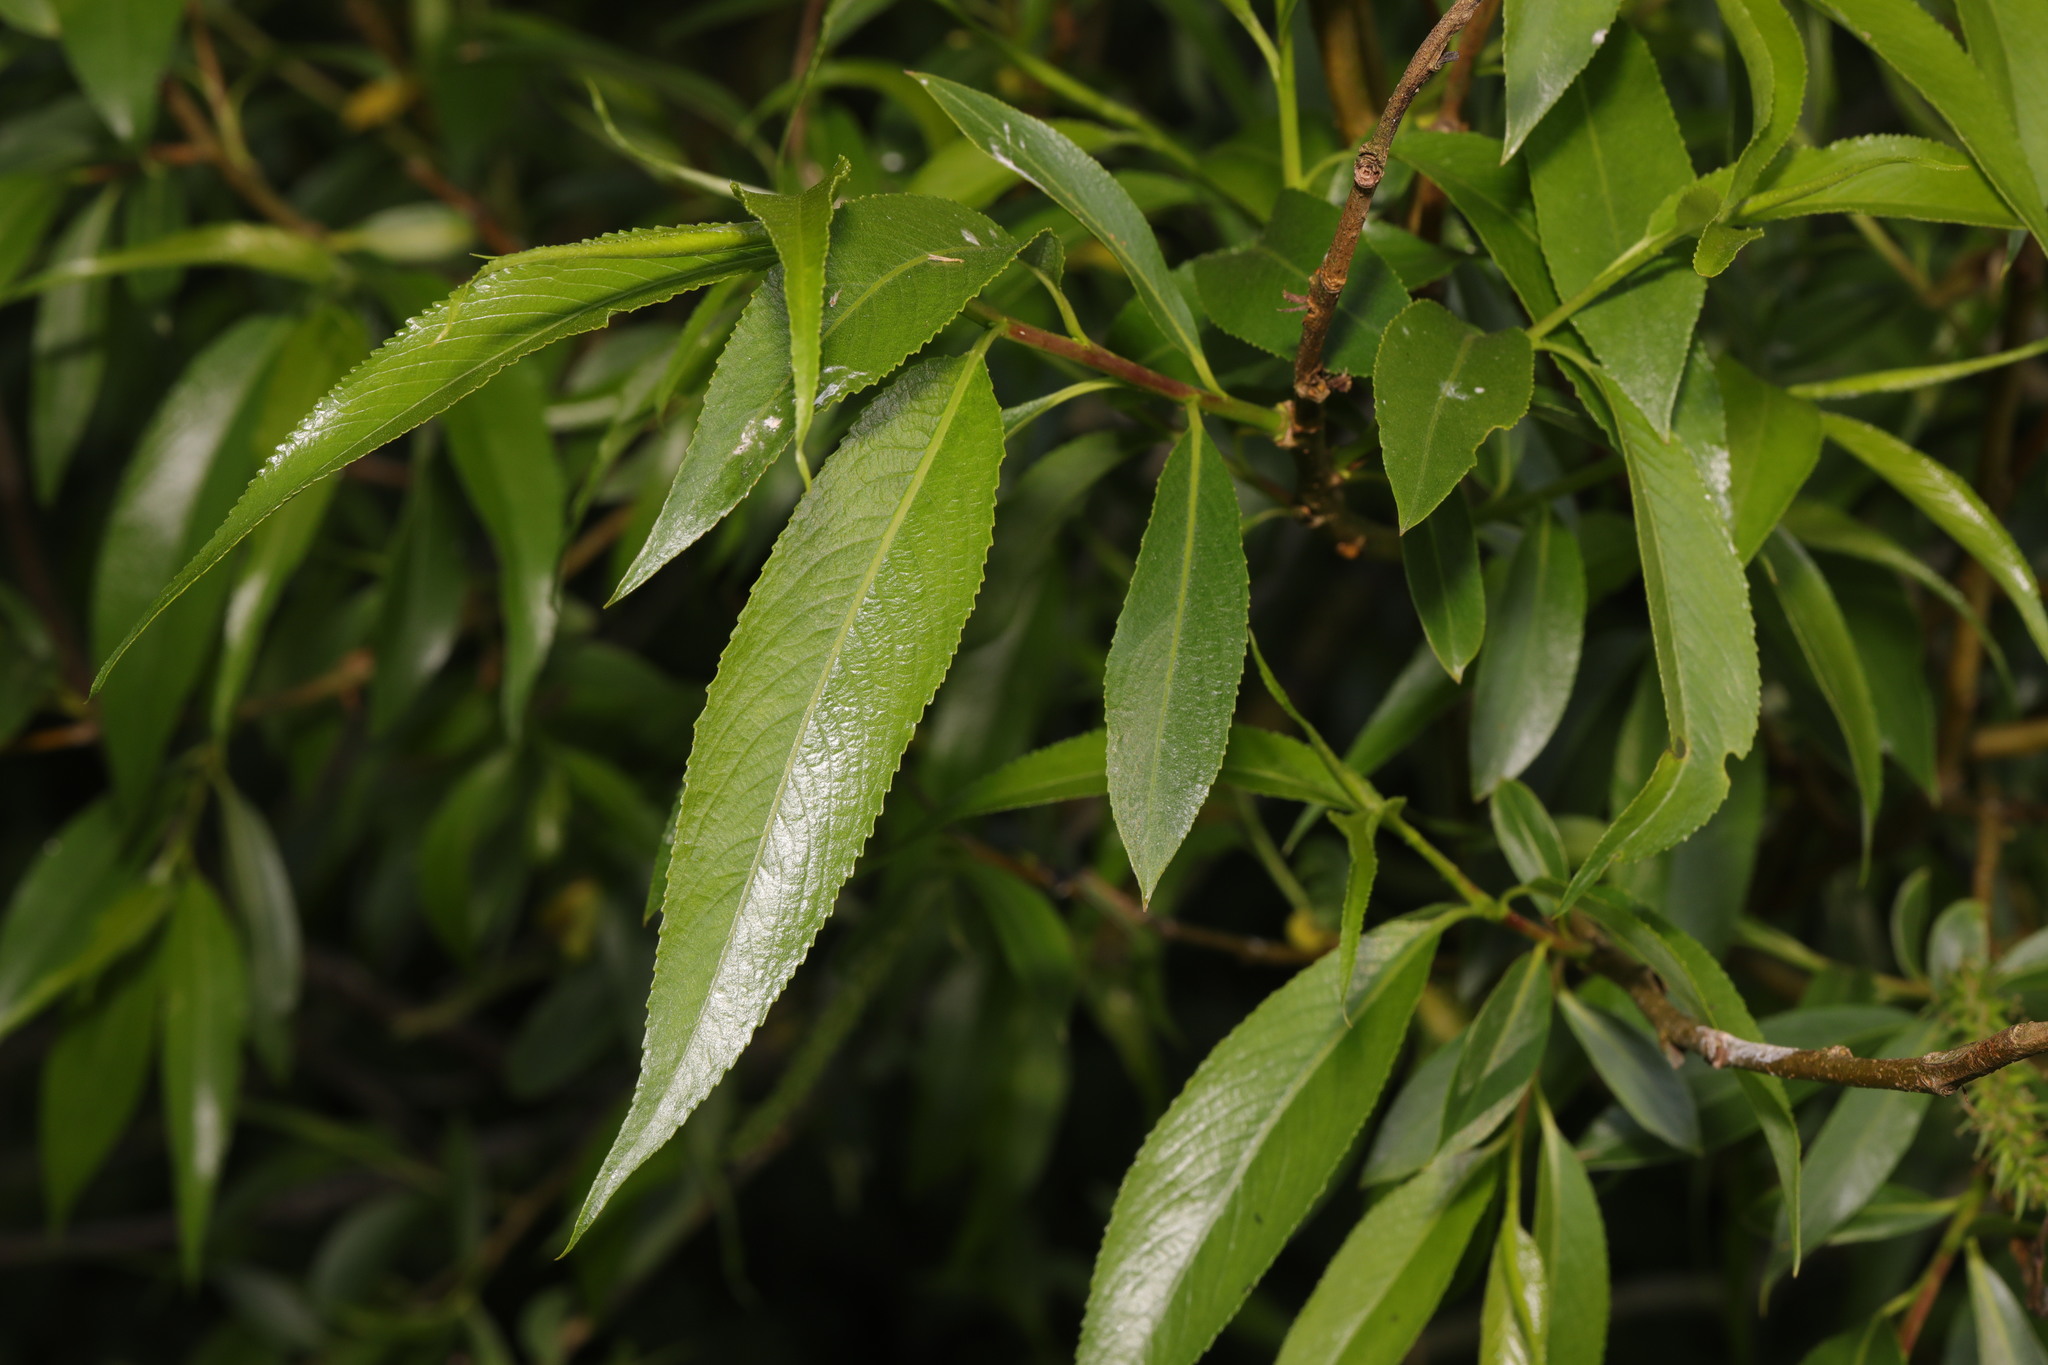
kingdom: Plantae
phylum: Tracheophyta
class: Magnoliopsida
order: Malpighiales
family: Salicaceae
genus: Salix
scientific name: Salix fragilis
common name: Crack willow
